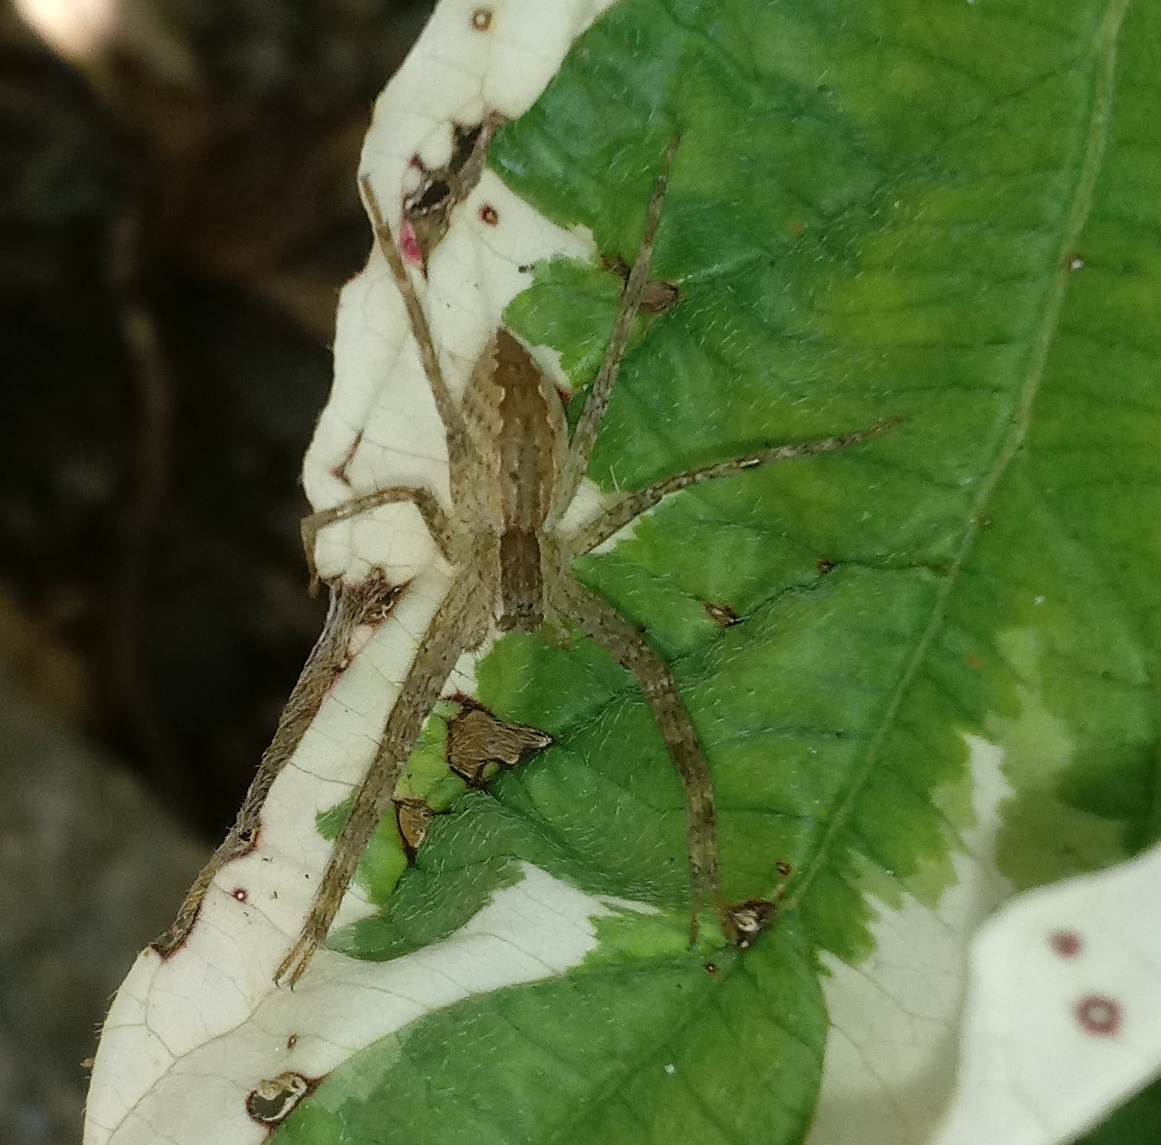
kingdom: Animalia
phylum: Arthropoda
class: Arachnida
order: Araneae
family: Pisauridae
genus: Pisaurina
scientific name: Pisaurina mira
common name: American nursery web spider
